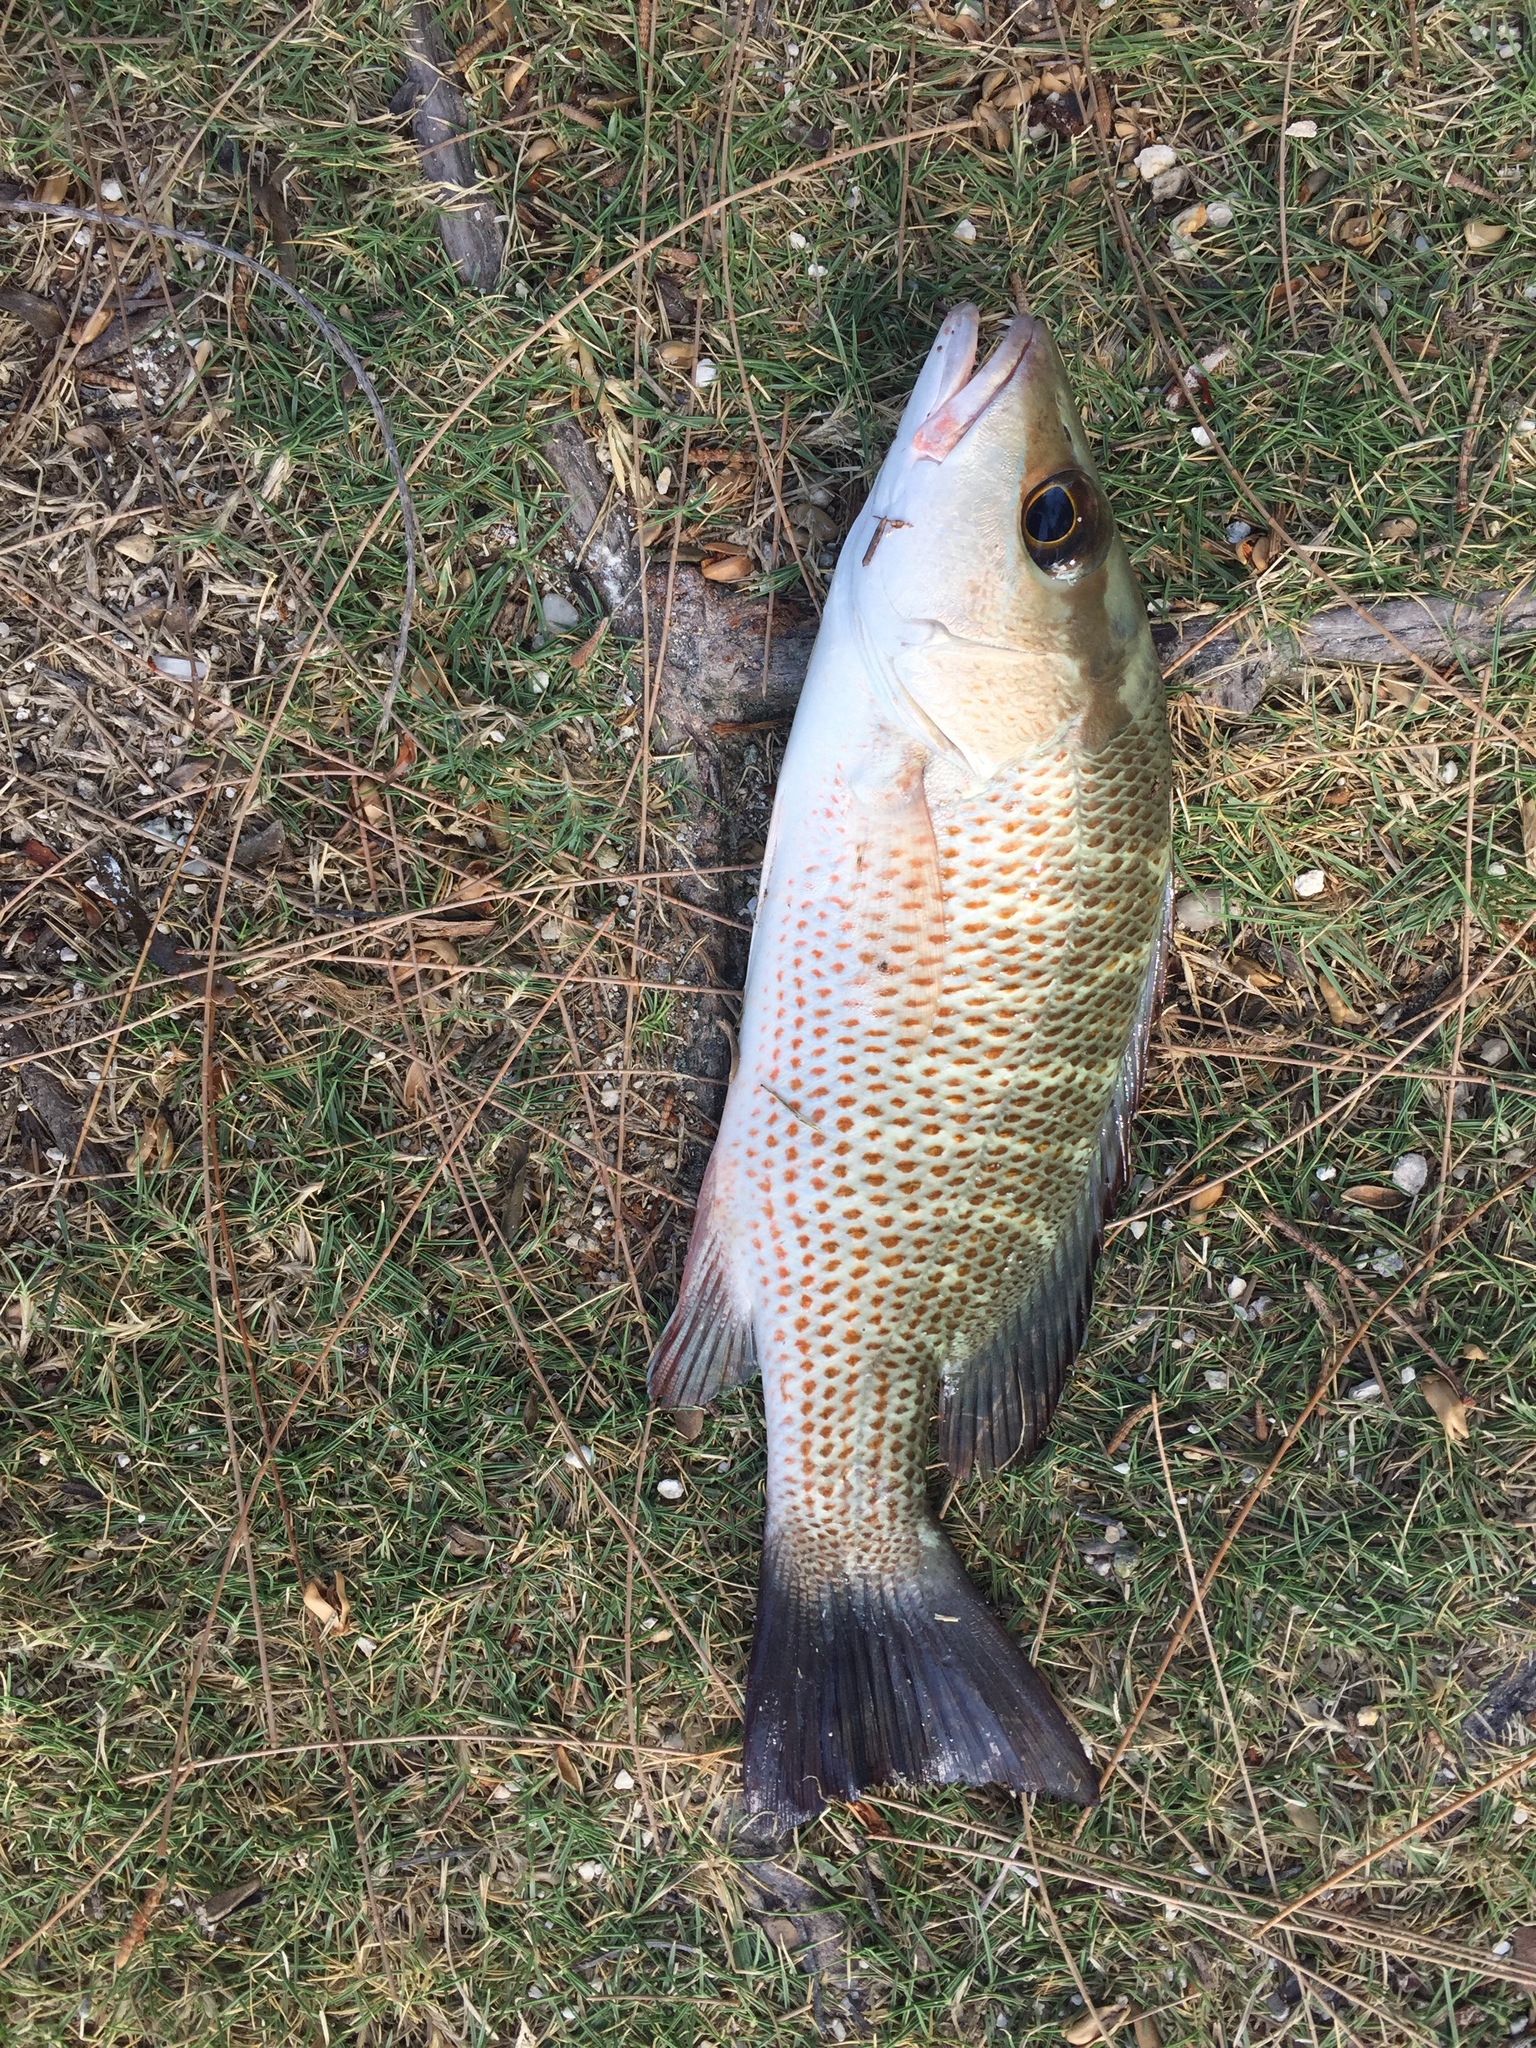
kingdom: Animalia
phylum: Chordata
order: Perciformes
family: Lutjanidae
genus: Lutjanus
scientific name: Lutjanus griseus
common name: Gray snapper
